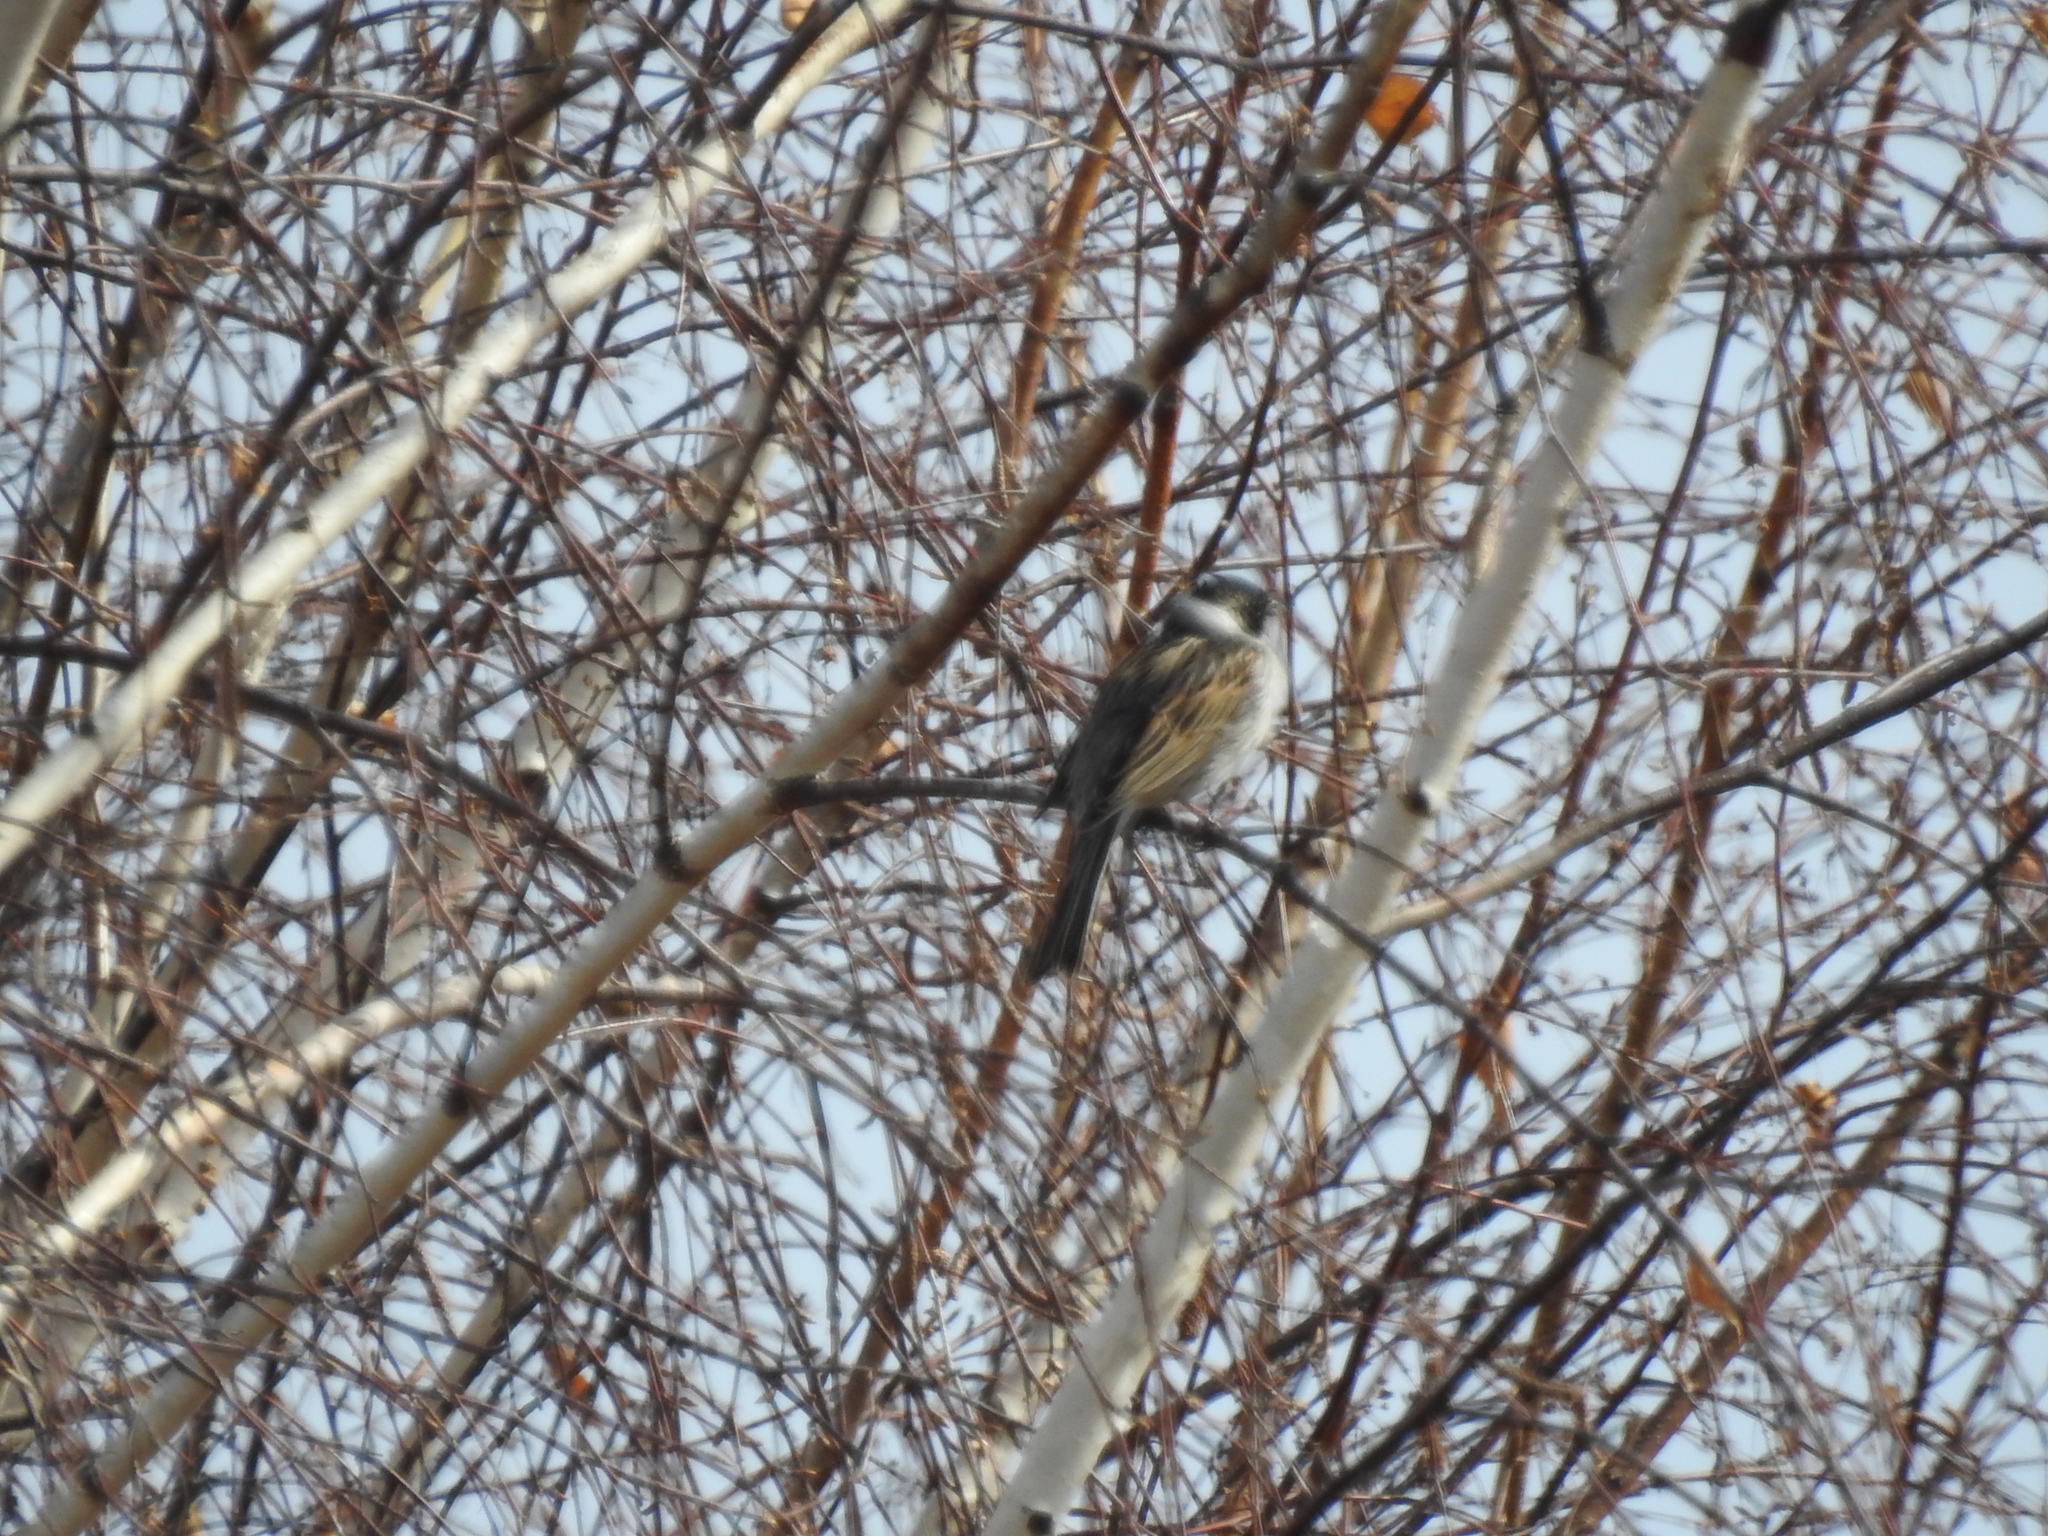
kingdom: Animalia
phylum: Chordata
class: Aves
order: Passeriformes
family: Emberizidae
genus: Emberiza
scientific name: Emberiza schoeniclus
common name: Reed bunting
